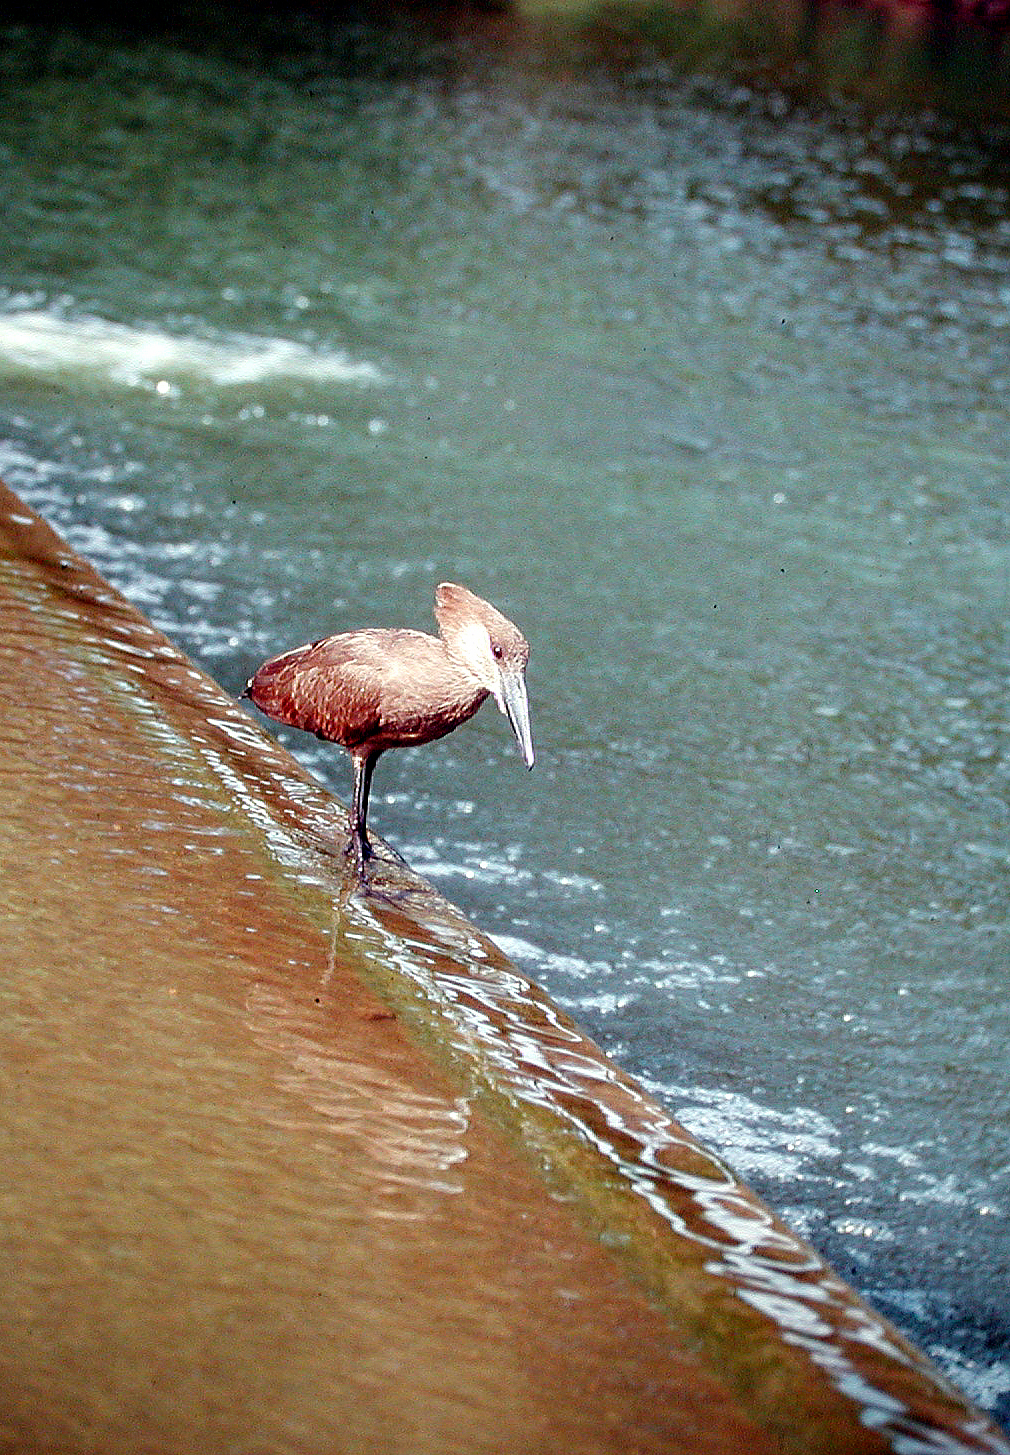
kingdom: Animalia
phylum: Chordata
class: Aves
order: Pelecaniformes
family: Scopidae
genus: Scopus
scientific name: Scopus umbretta
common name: Hamerkop
